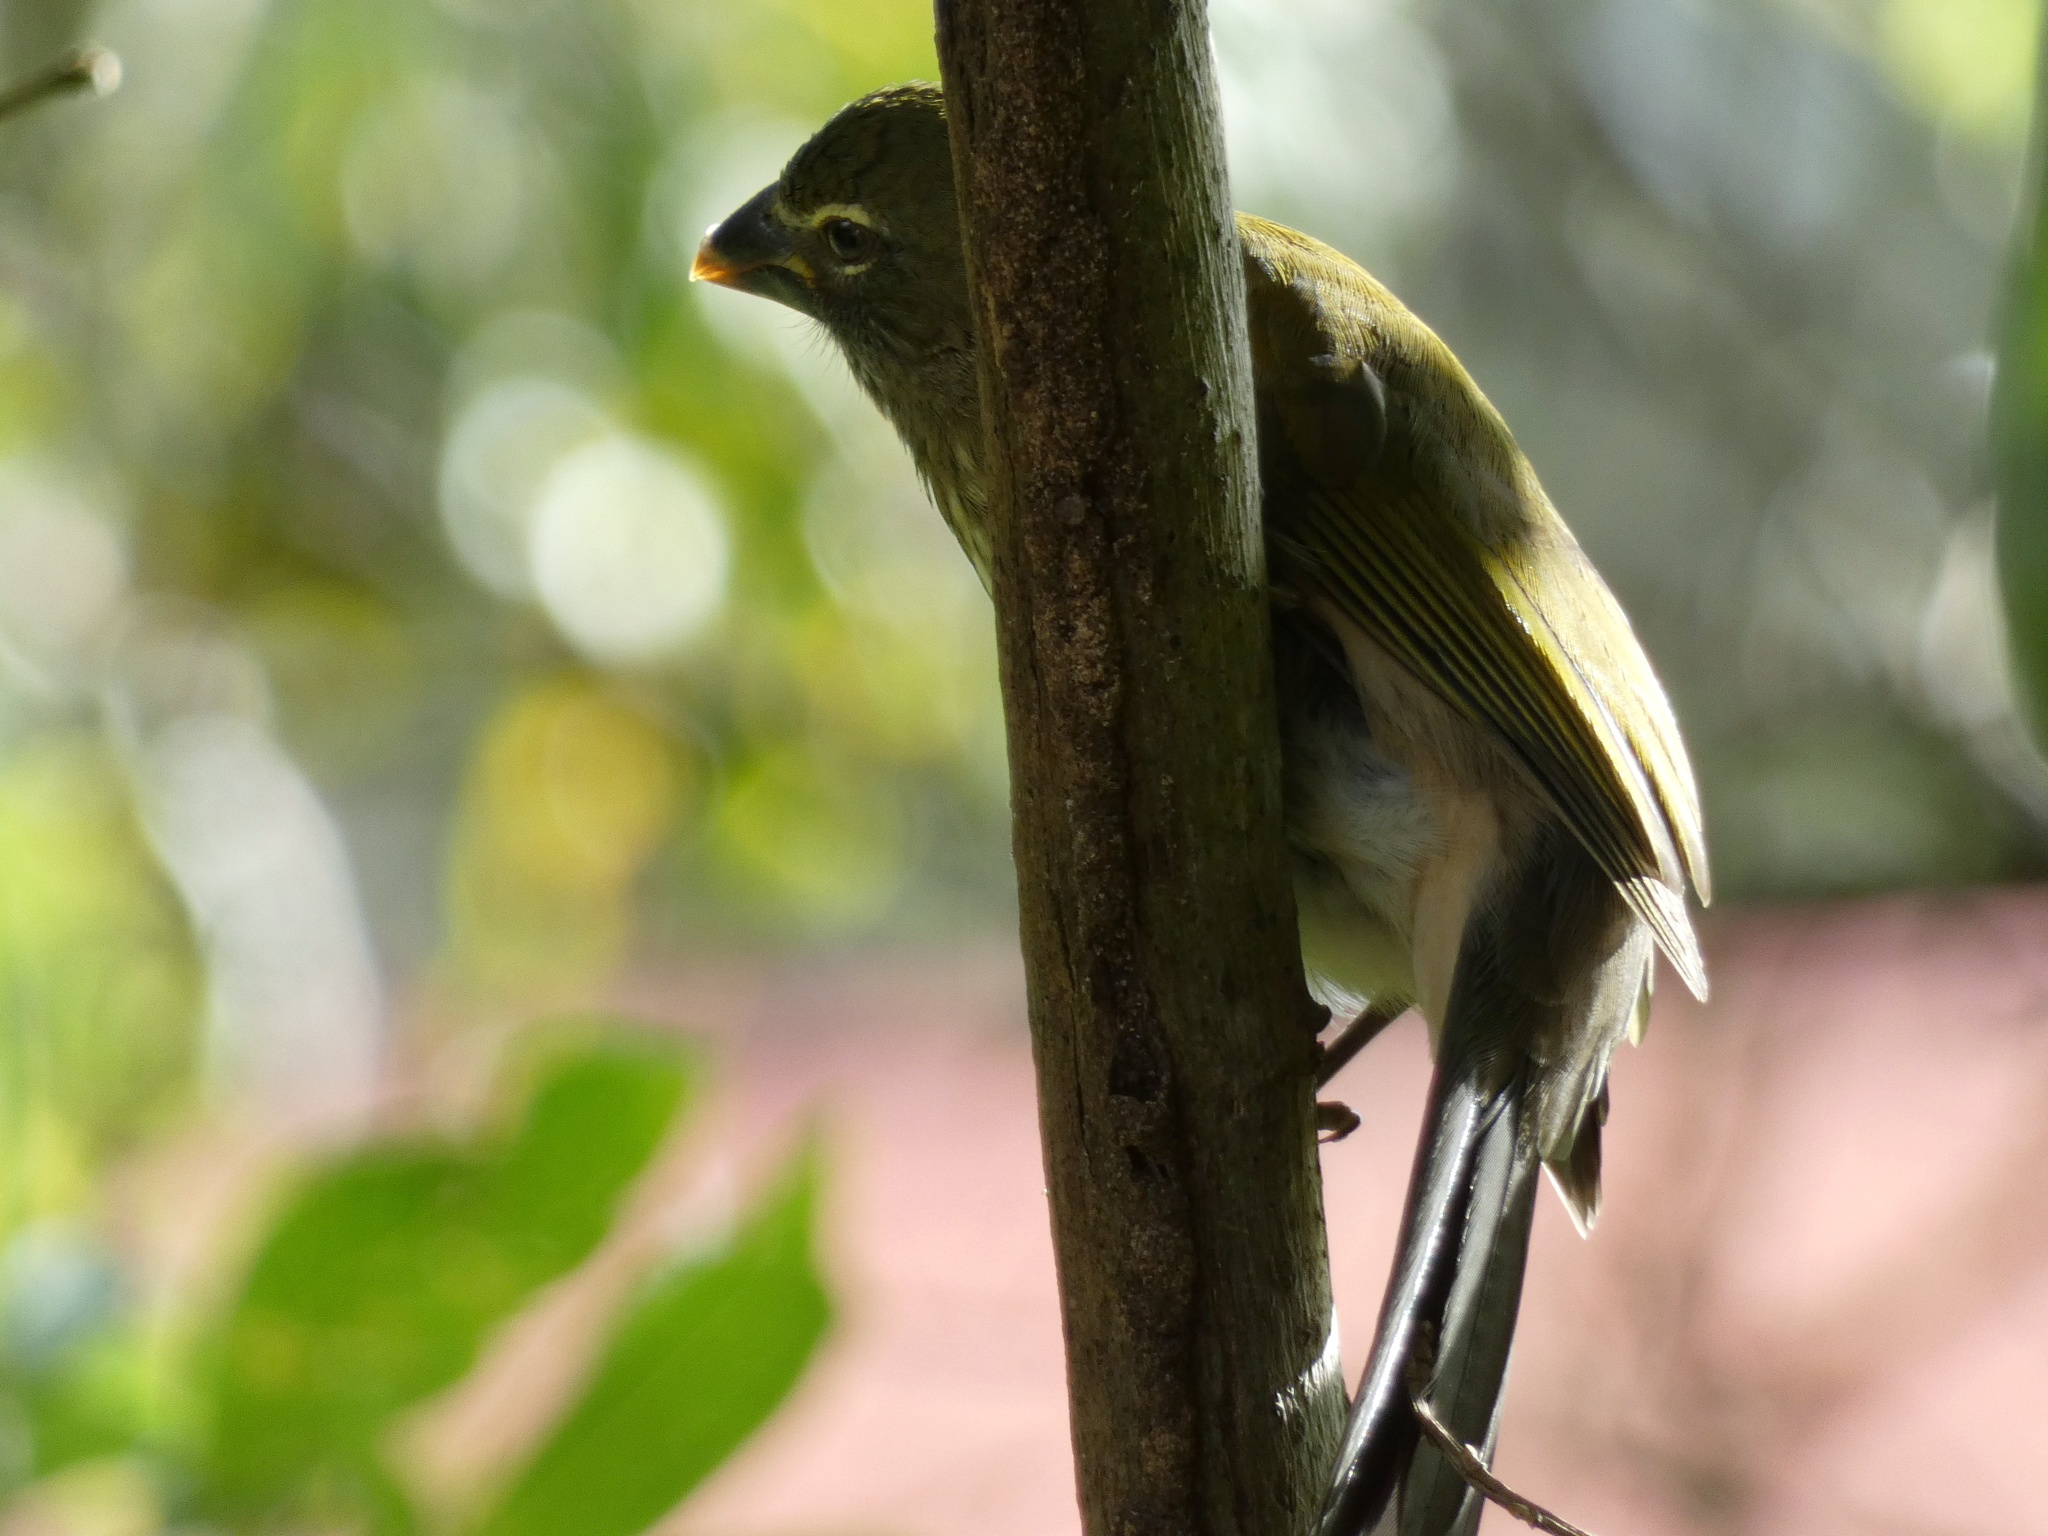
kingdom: Animalia
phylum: Chordata
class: Aves
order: Passeriformes
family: Thraupidae
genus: Saltator
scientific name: Saltator striatipectus
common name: Streaked saltator
